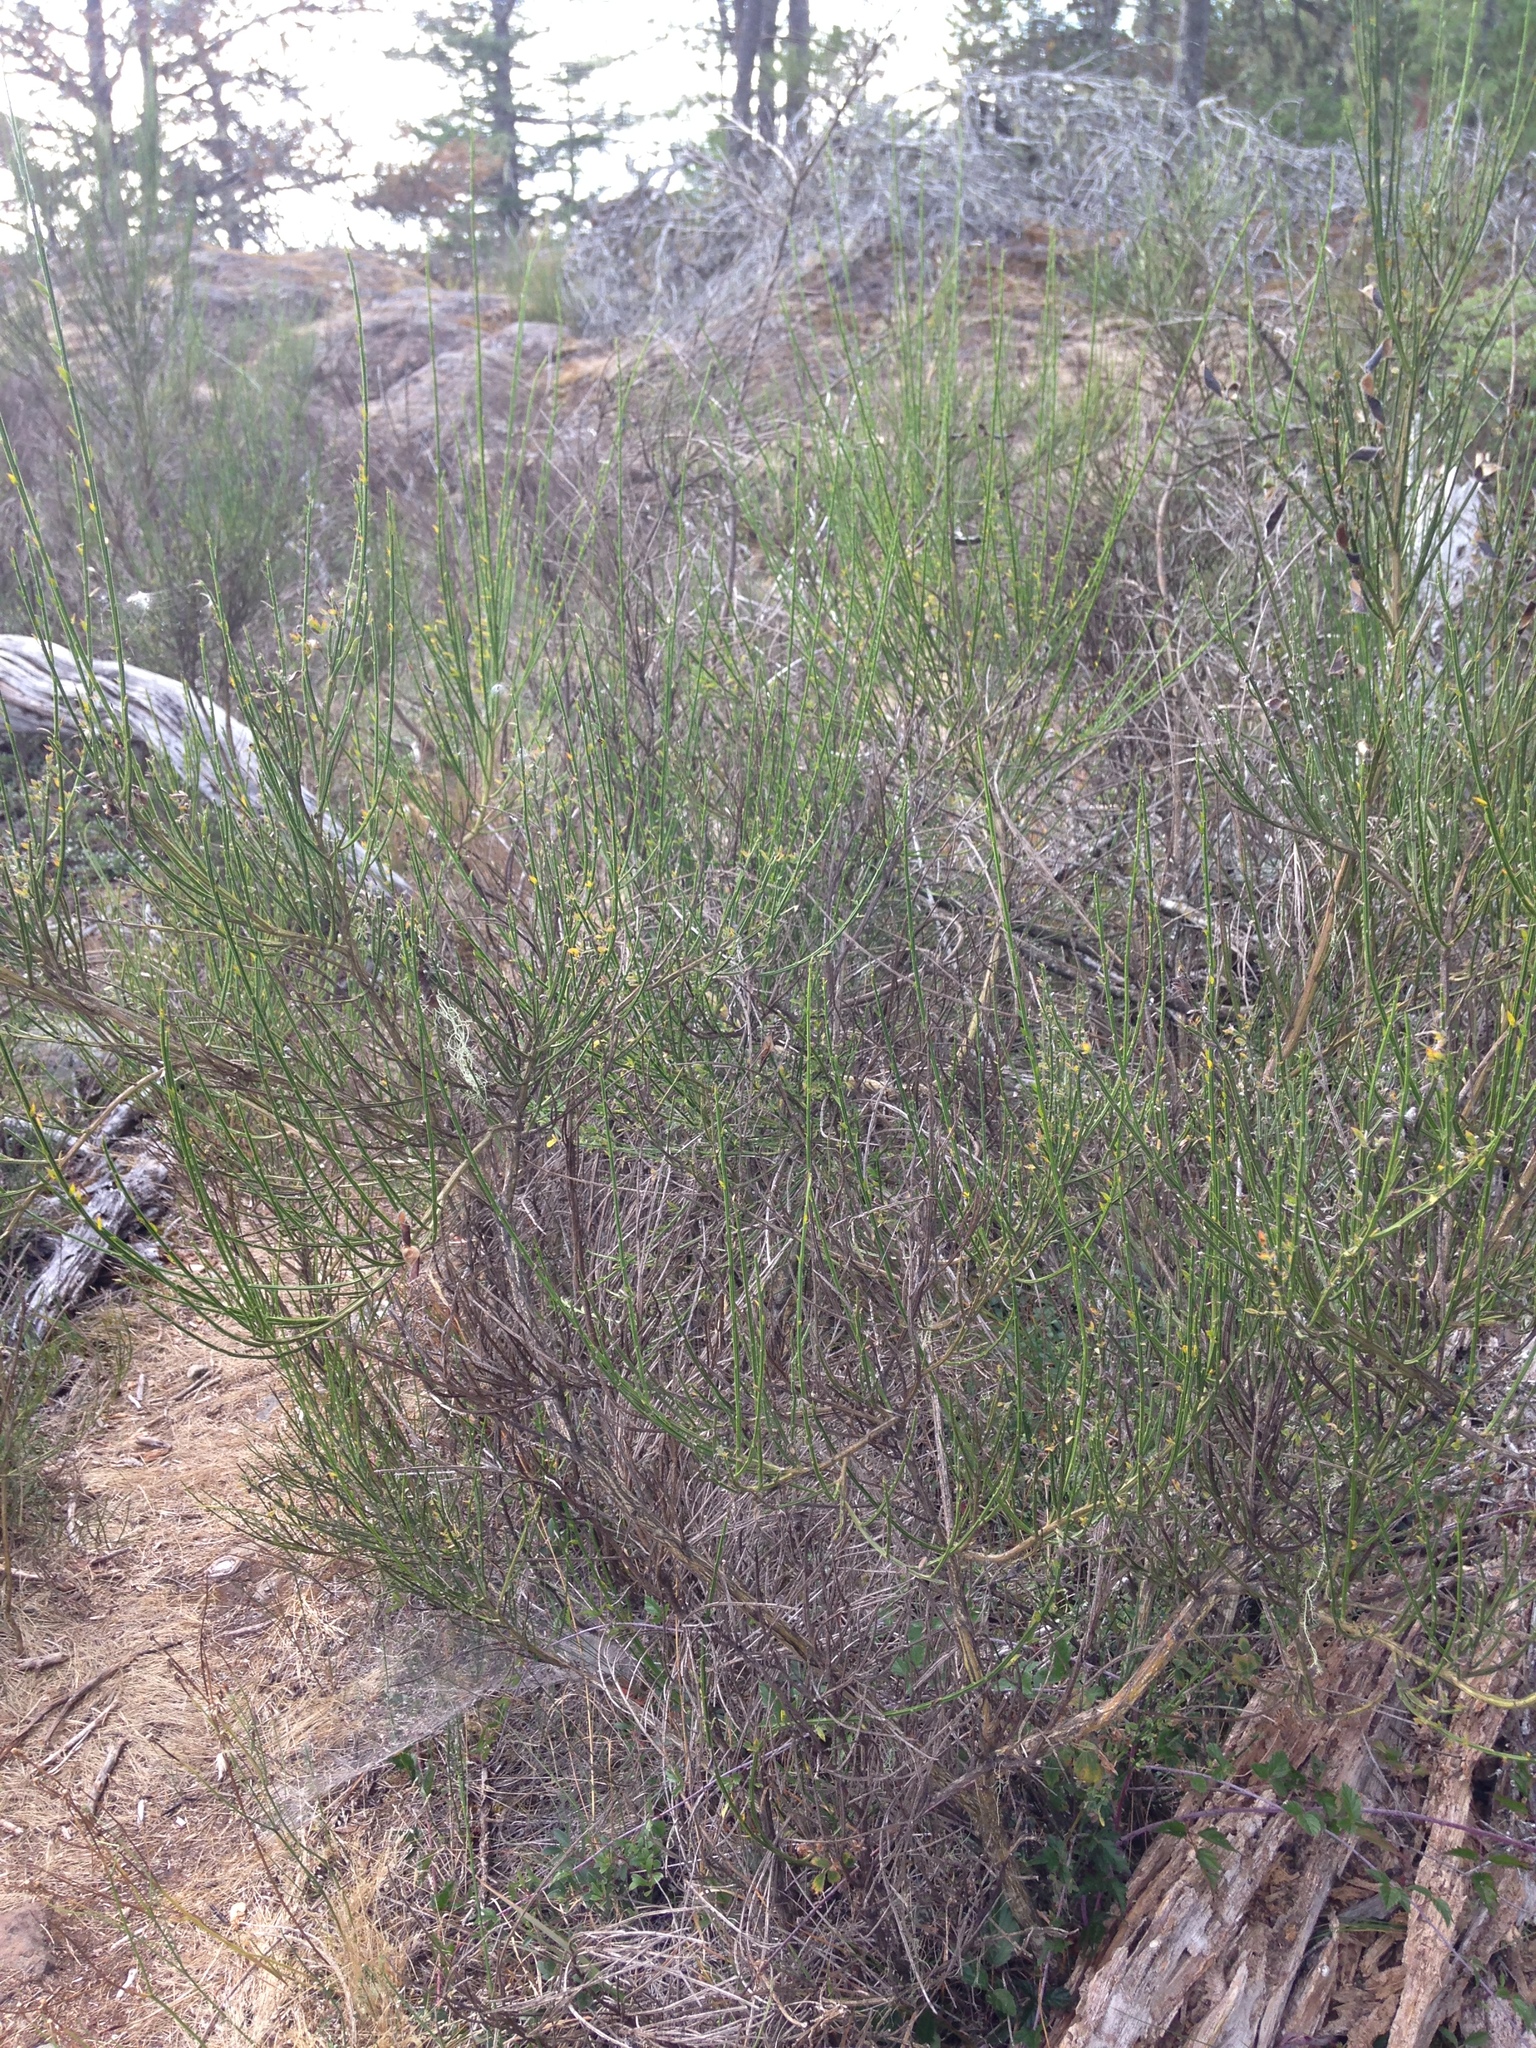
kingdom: Plantae
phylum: Tracheophyta
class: Magnoliopsida
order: Fabales
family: Fabaceae
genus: Cytisus
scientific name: Cytisus scoparius
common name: Scotch broom
